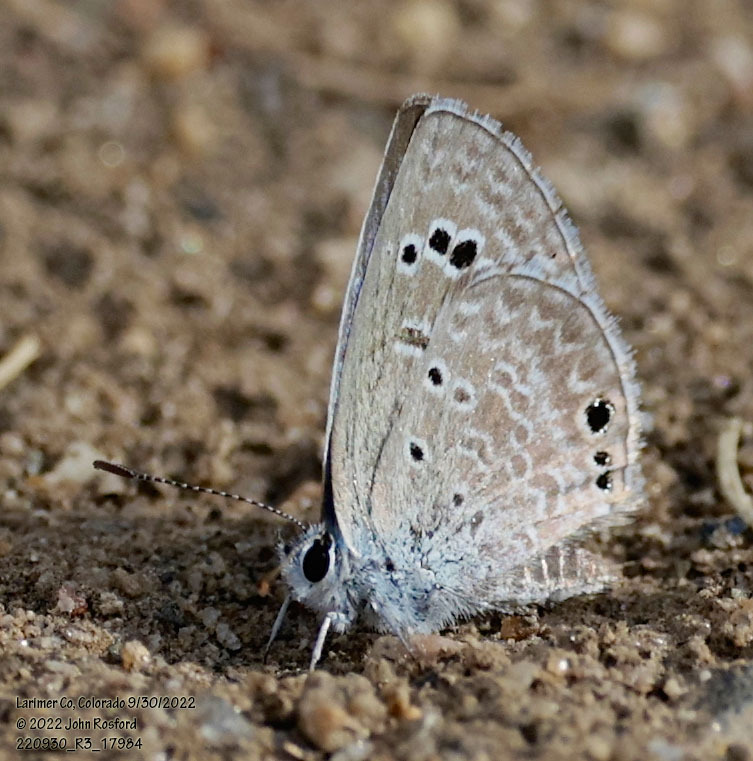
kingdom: Animalia
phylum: Arthropoda
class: Insecta
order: Lepidoptera
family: Lycaenidae
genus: Echinargus
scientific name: Echinargus isola
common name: Reakirt's blue
